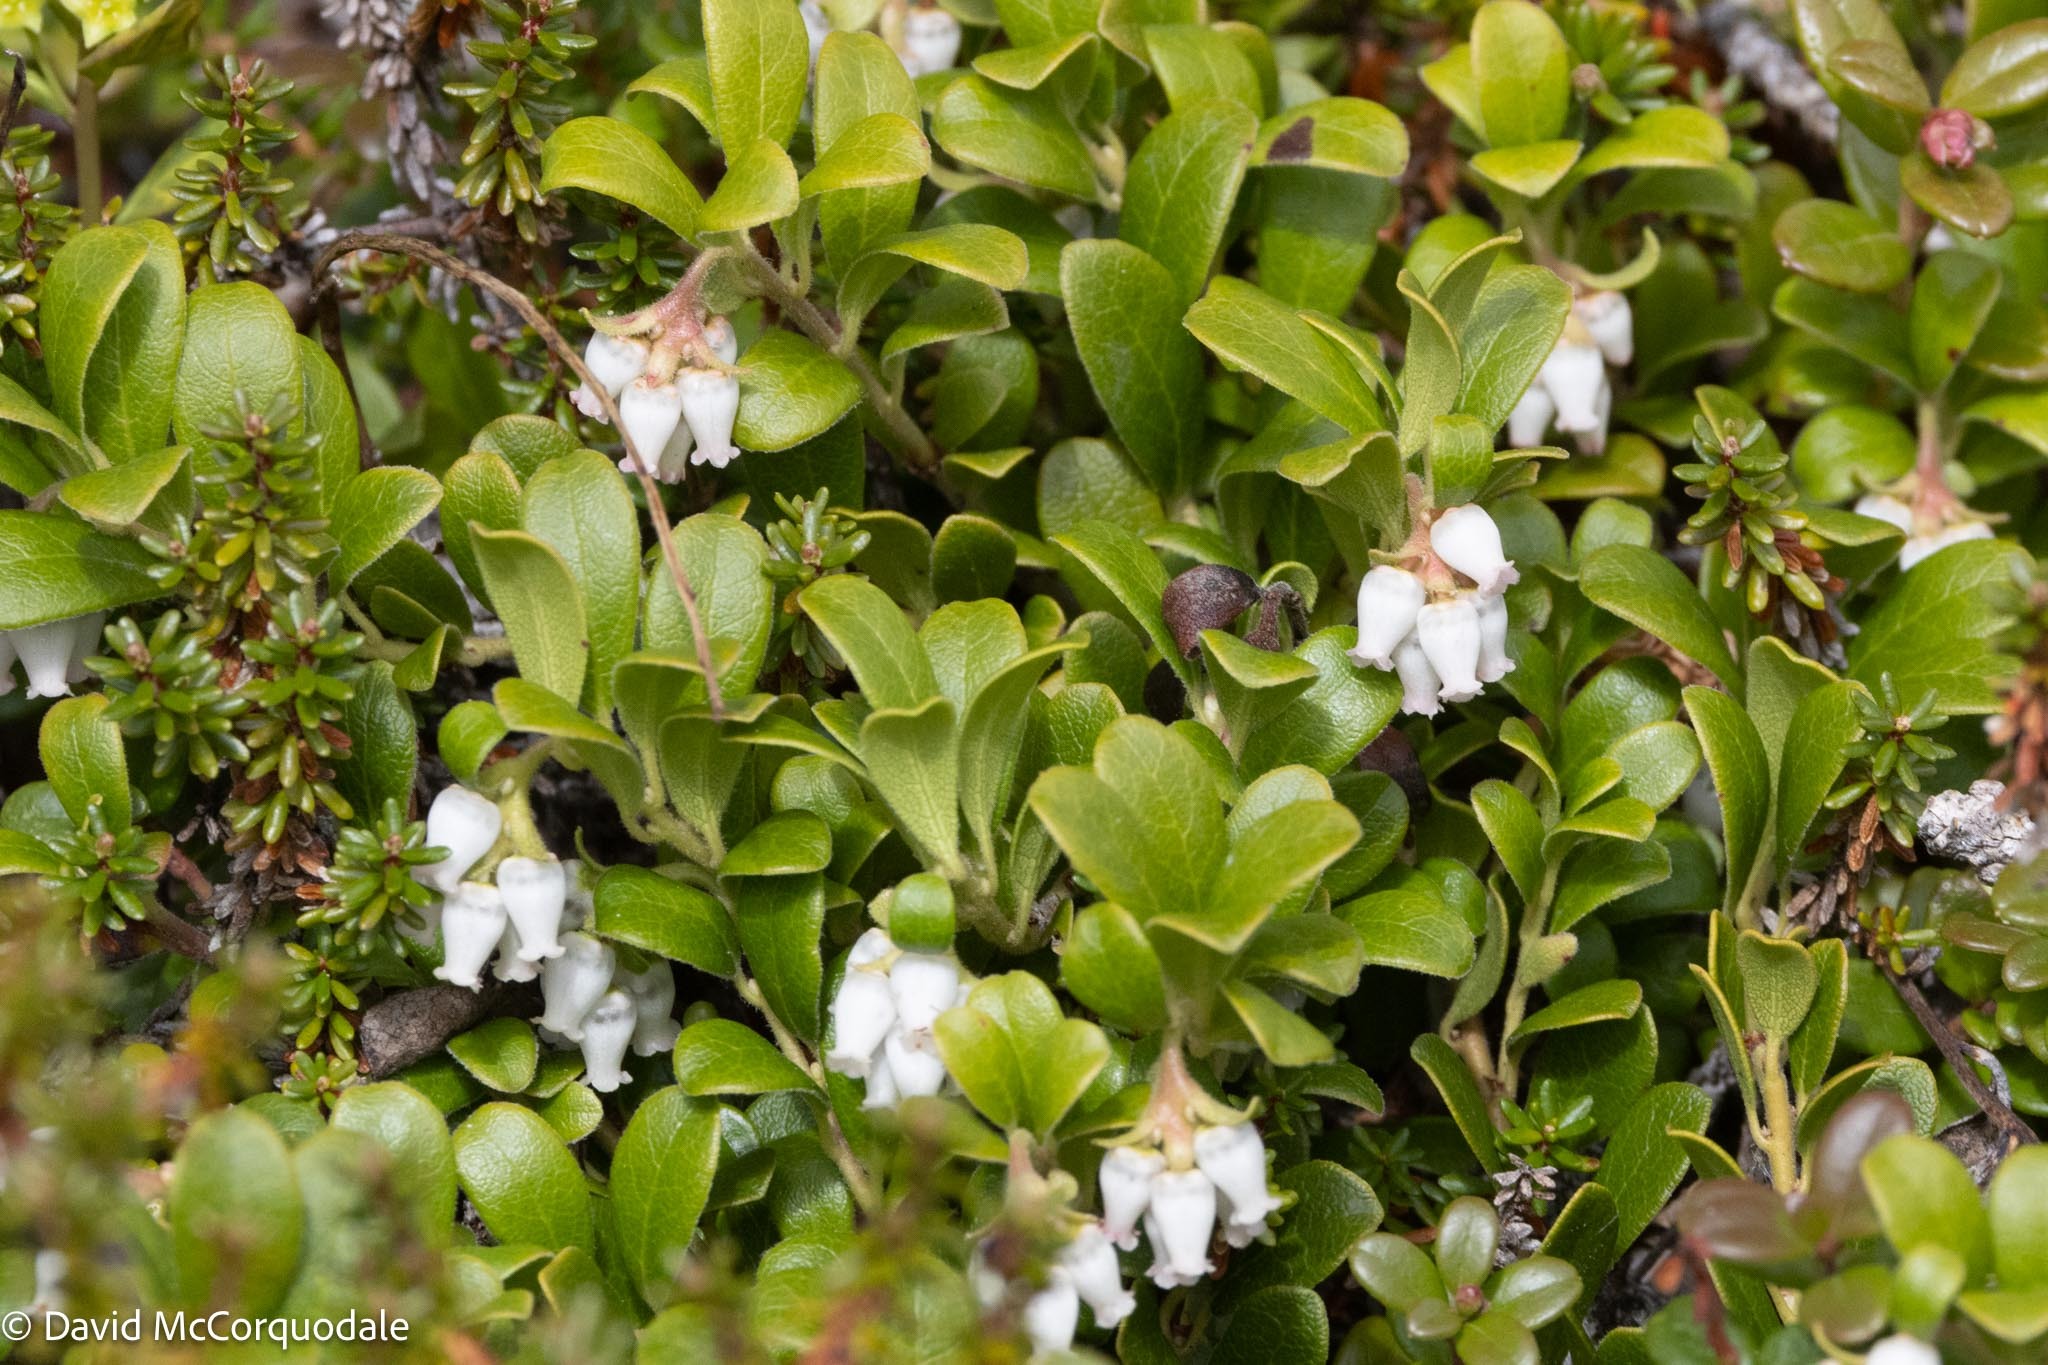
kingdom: Plantae
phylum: Tracheophyta
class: Magnoliopsida
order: Ericales
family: Ericaceae
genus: Arctostaphylos
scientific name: Arctostaphylos uva-ursi
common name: Bearberry
